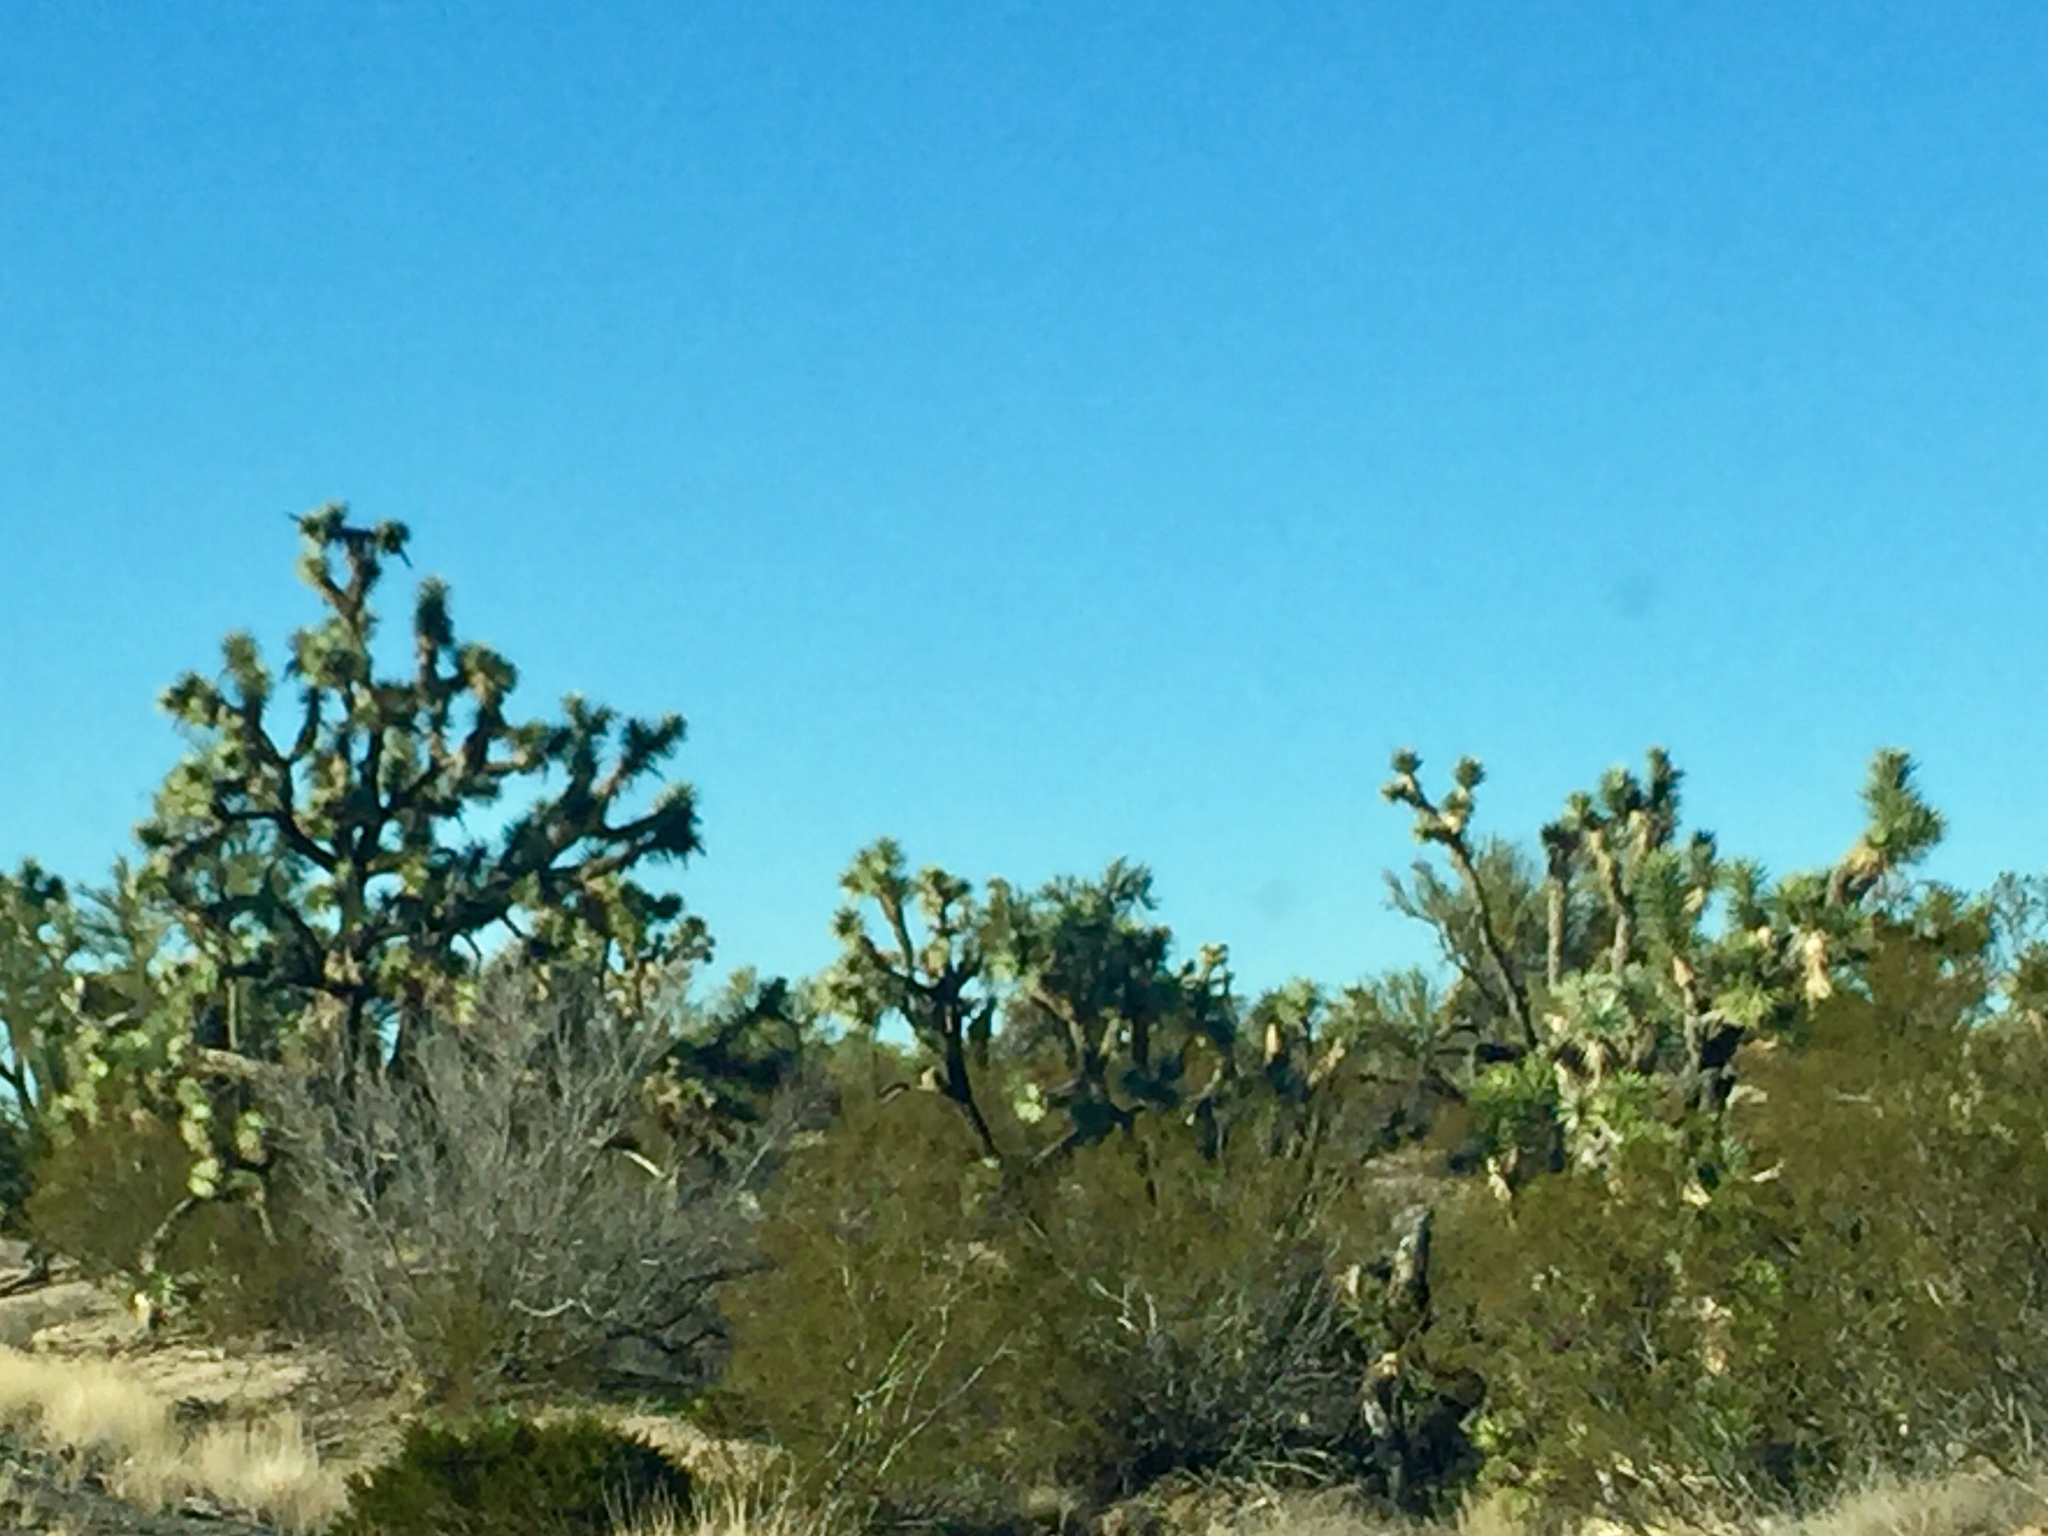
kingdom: Plantae
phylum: Tracheophyta
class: Liliopsida
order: Asparagales
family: Asparagaceae
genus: Yucca
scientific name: Yucca brevifolia
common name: Joshua tree
